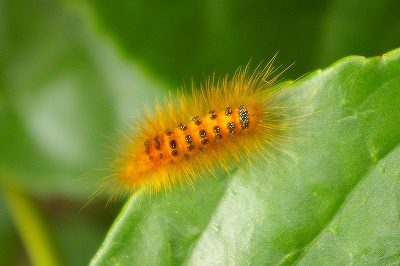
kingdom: Animalia
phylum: Arthropoda
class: Insecta
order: Lepidoptera
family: Erebidae
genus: Somena
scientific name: Somena
